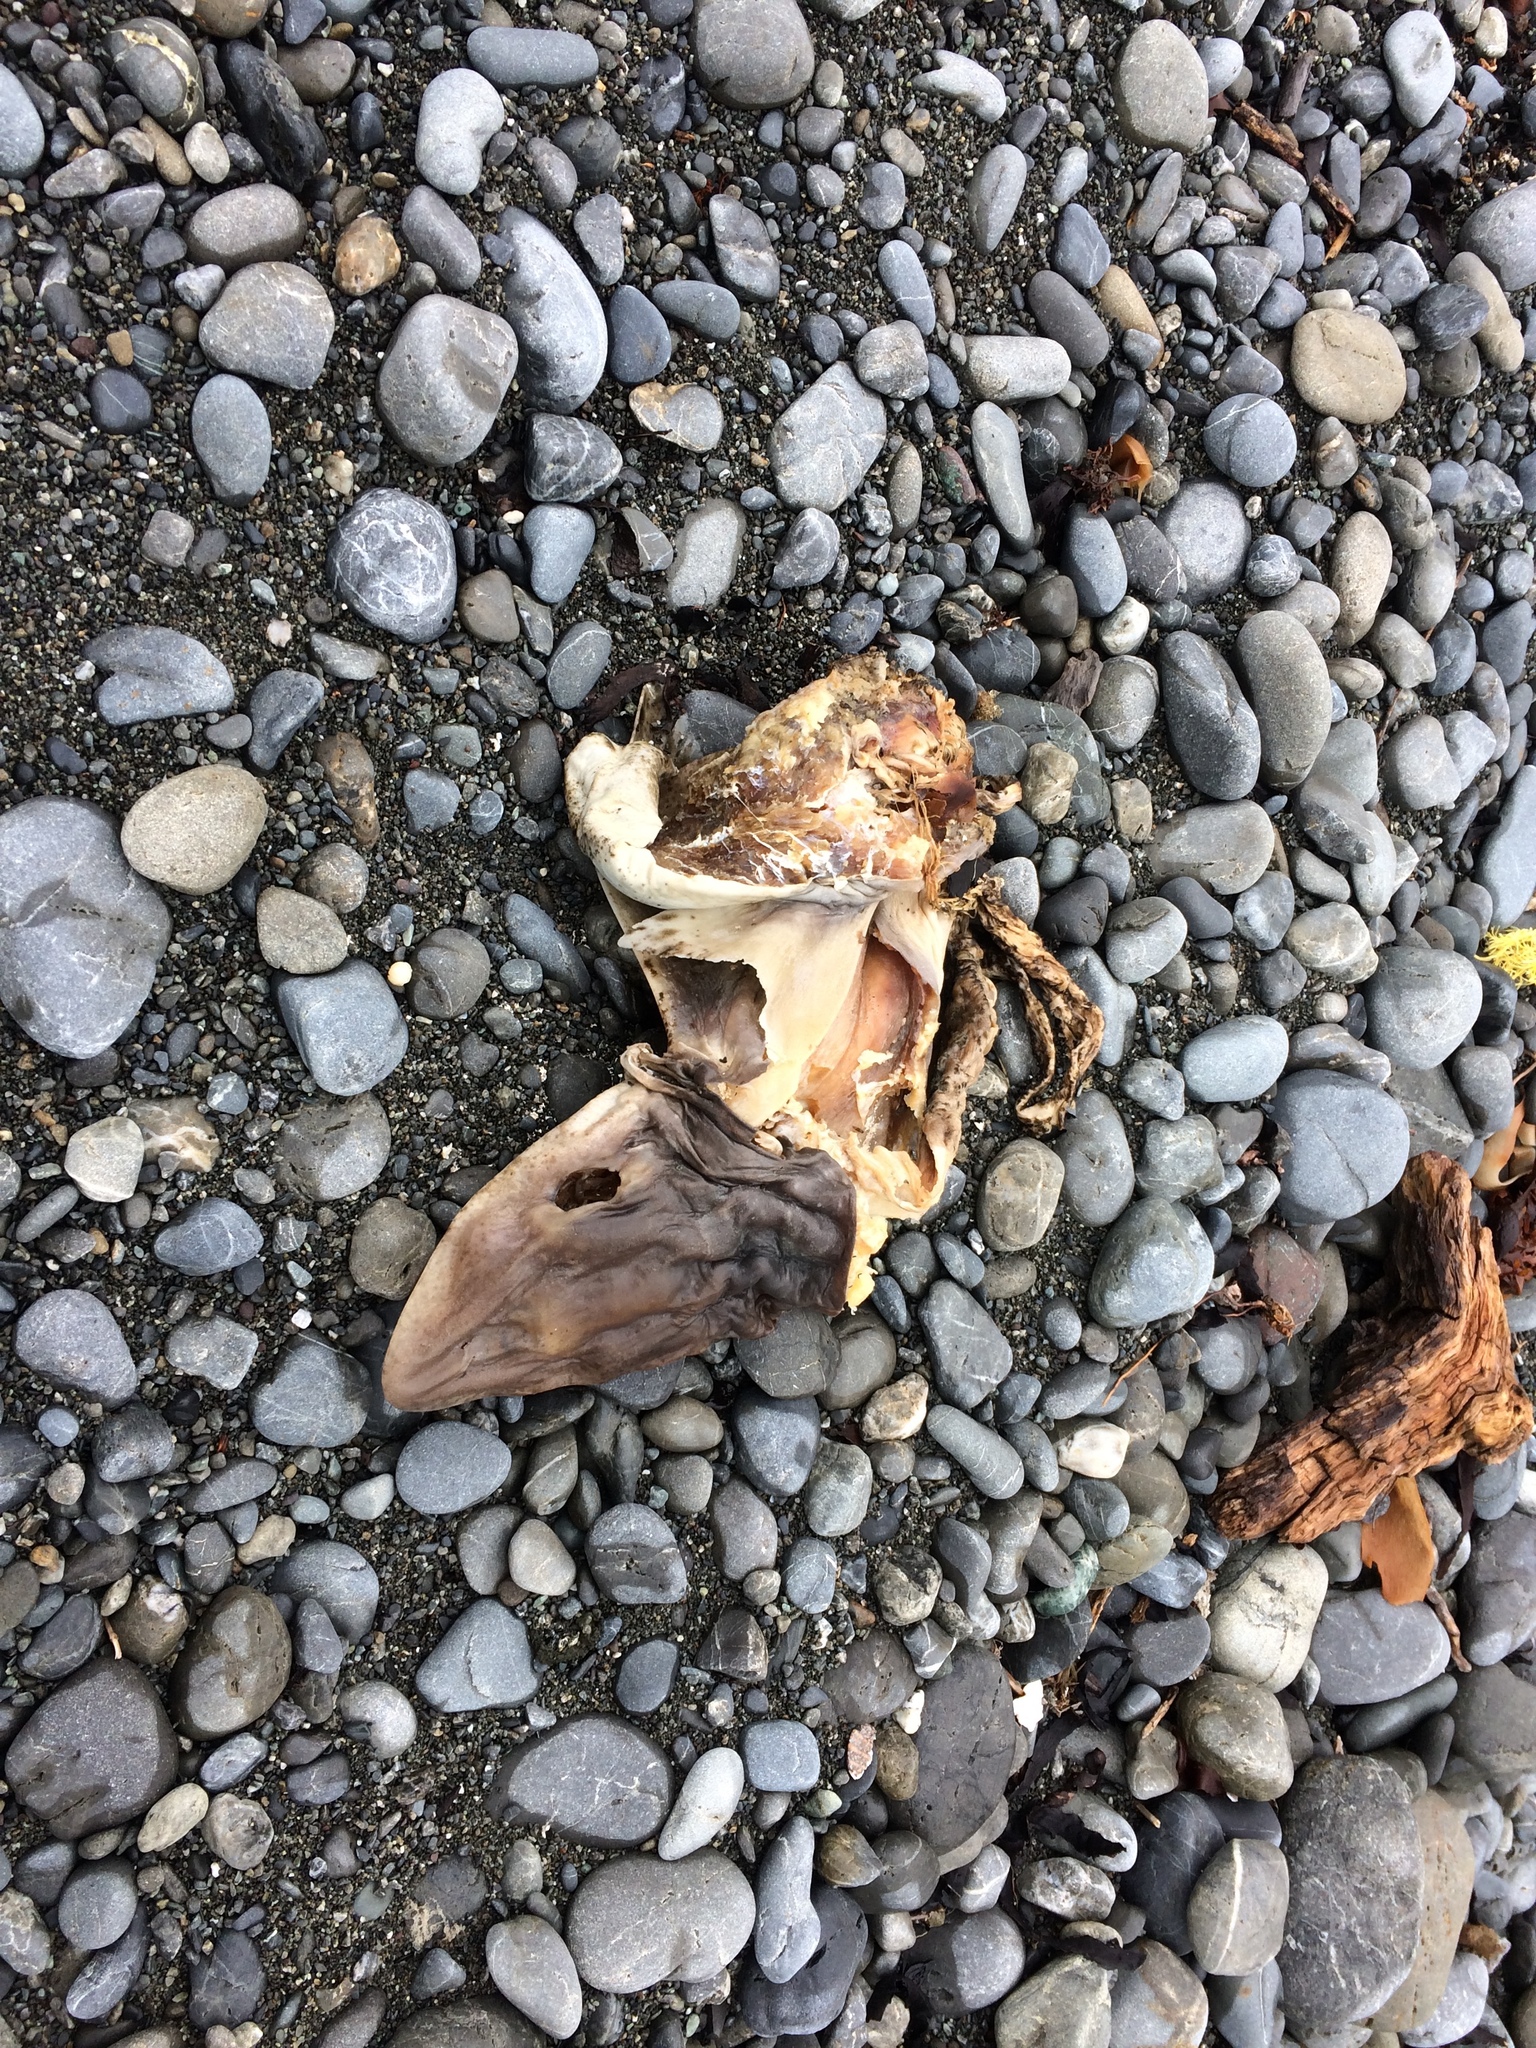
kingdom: Animalia
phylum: Chordata
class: Elasmobranchii
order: Carcharhiniformes
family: Triakidae
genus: Mustelus
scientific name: Mustelus lenticulatus
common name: Gummy shark
